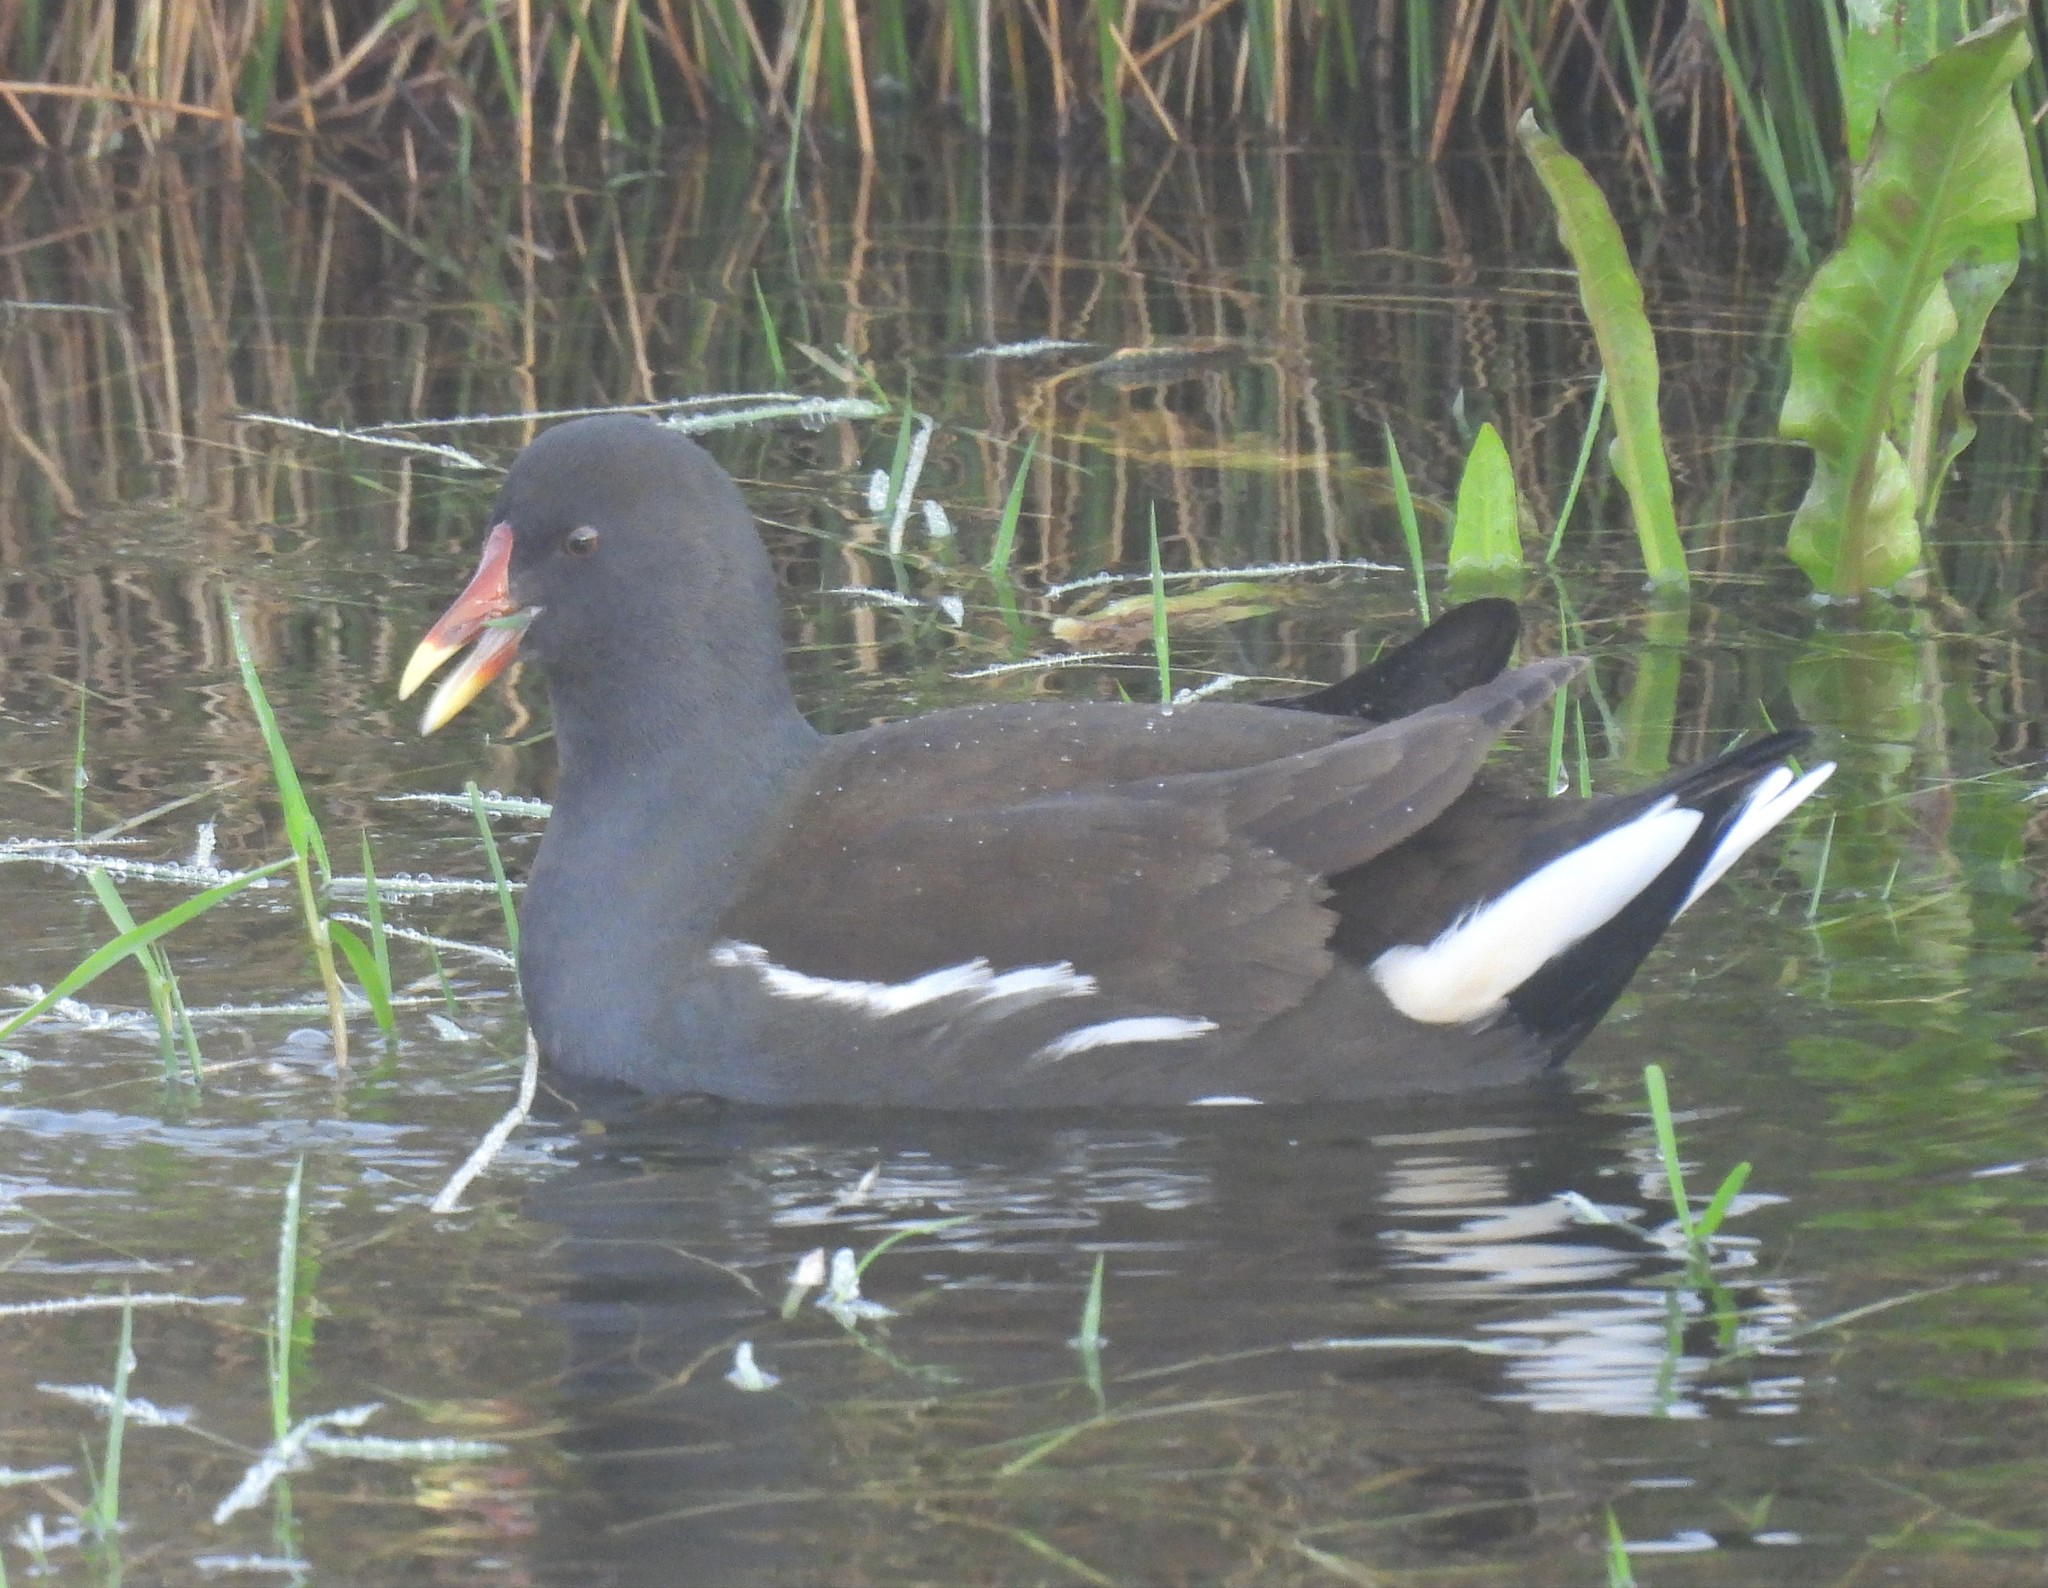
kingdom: Animalia
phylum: Chordata
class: Aves
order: Gruiformes
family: Rallidae
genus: Gallinula
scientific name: Gallinula chloropus
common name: Common moorhen
